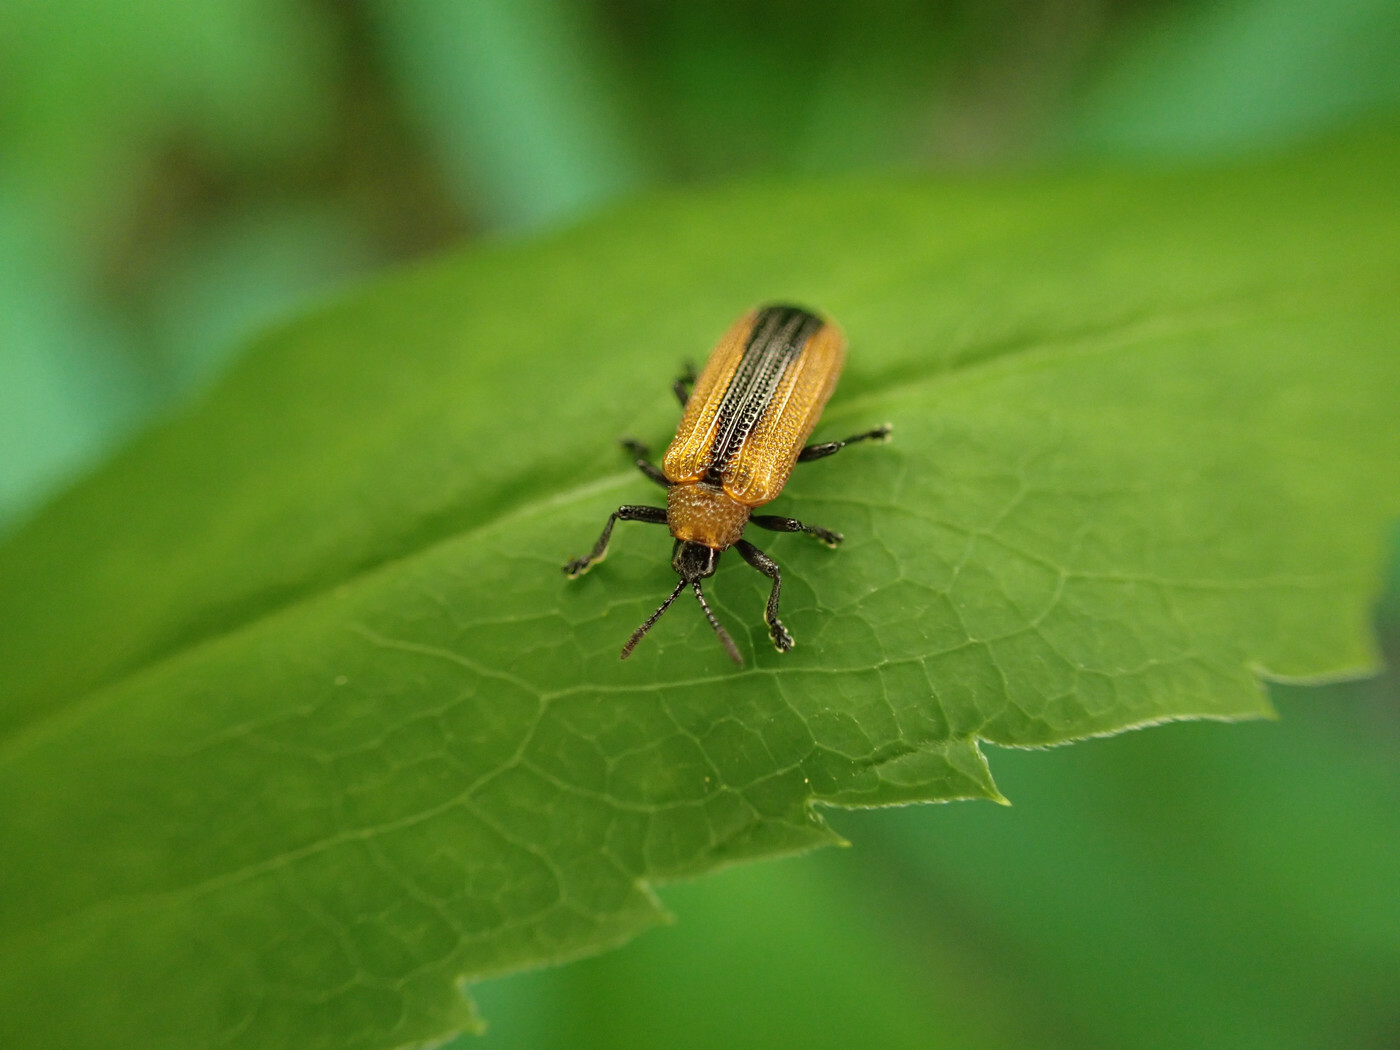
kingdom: Animalia
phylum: Arthropoda
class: Insecta
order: Coleoptera
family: Chrysomelidae
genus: Odontota
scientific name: Odontota dorsalis
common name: Locust leaf-miner beetle
